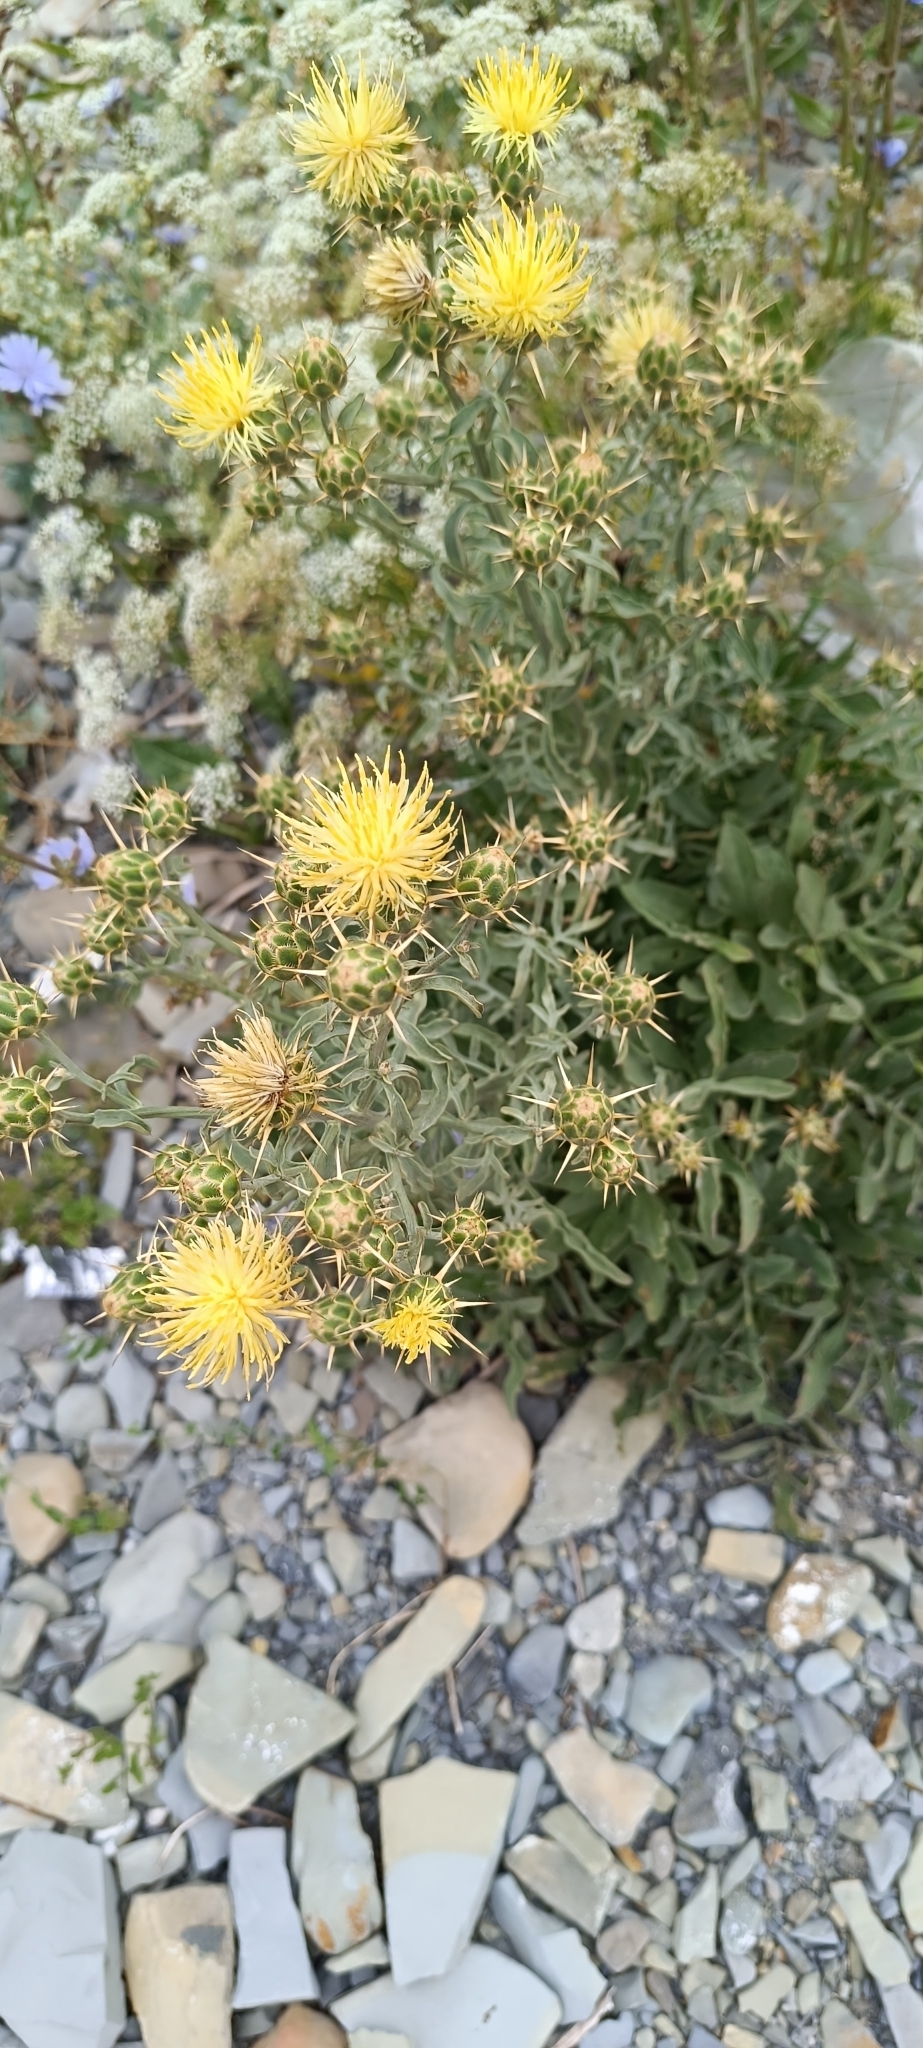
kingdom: Plantae
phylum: Tracheophyta
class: Magnoliopsida
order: Asterales
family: Asteraceae
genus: Centaurea
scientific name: Centaurea salonitana
